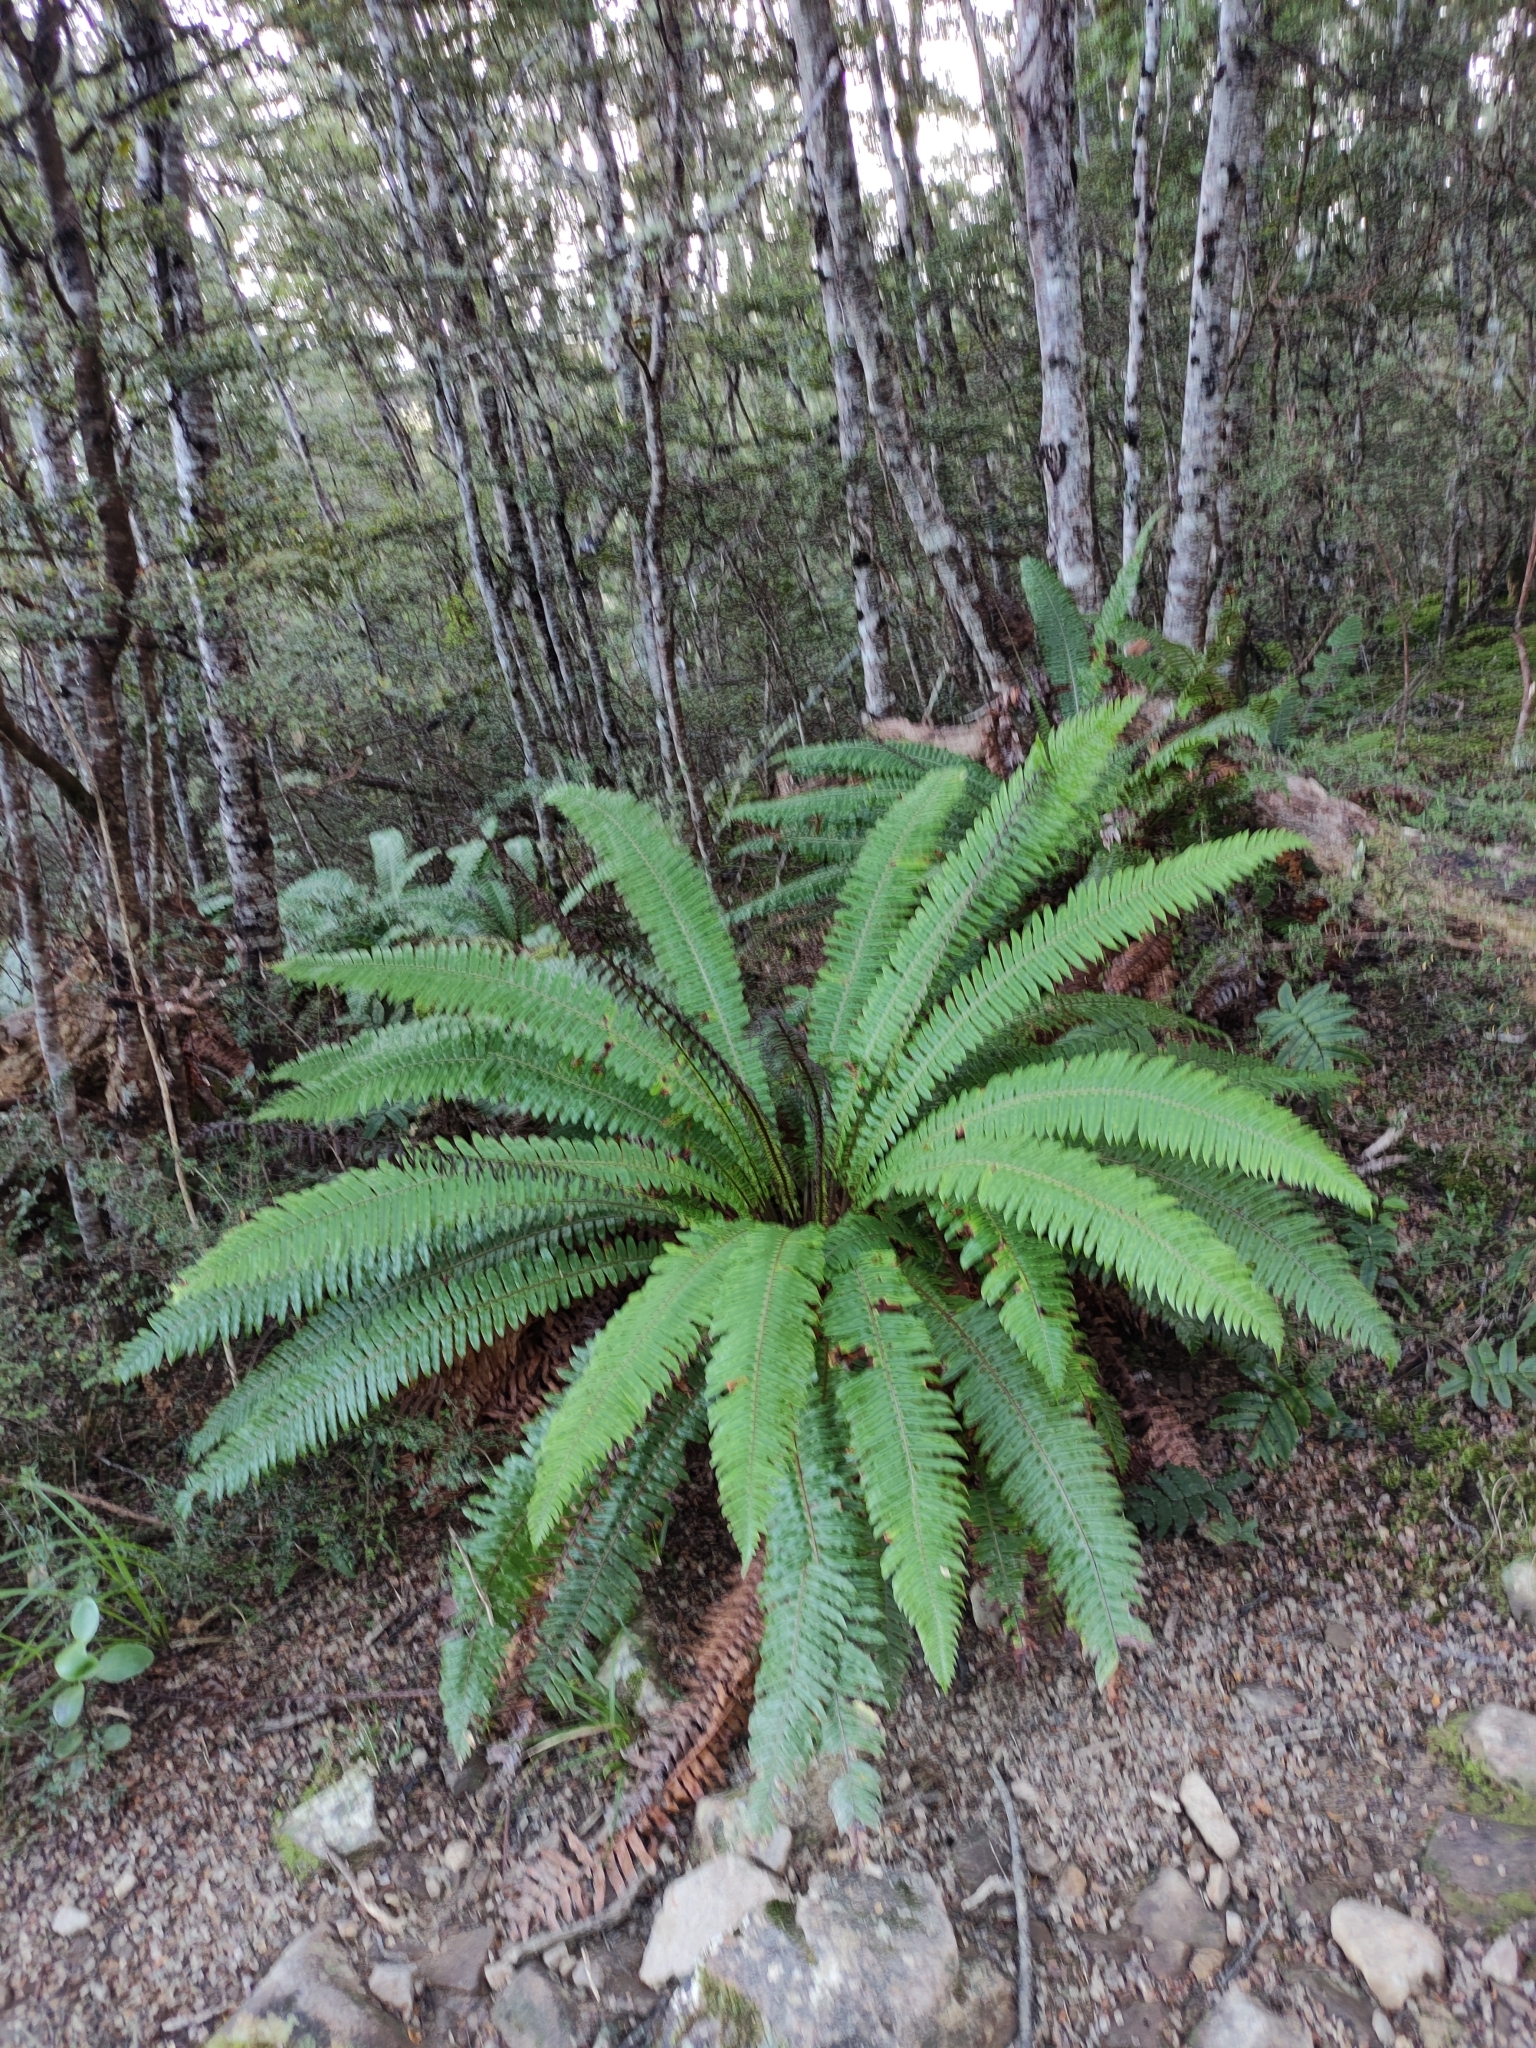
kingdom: Plantae
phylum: Tracheophyta
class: Polypodiopsida
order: Polypodiales
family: Blechnaceae
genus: Lomaria
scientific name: Lomaria discolor
